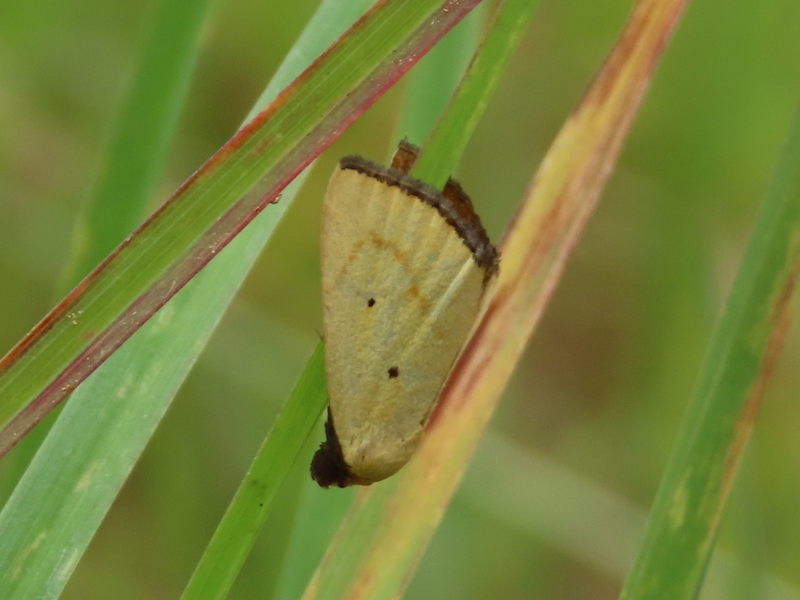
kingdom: Animalia
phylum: Arthropoda
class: Insecta
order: Lepidoptera
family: Noctuidae
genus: Marimatha
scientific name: Marimatha nigrofimbria
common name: Black-bordered lemon moth
